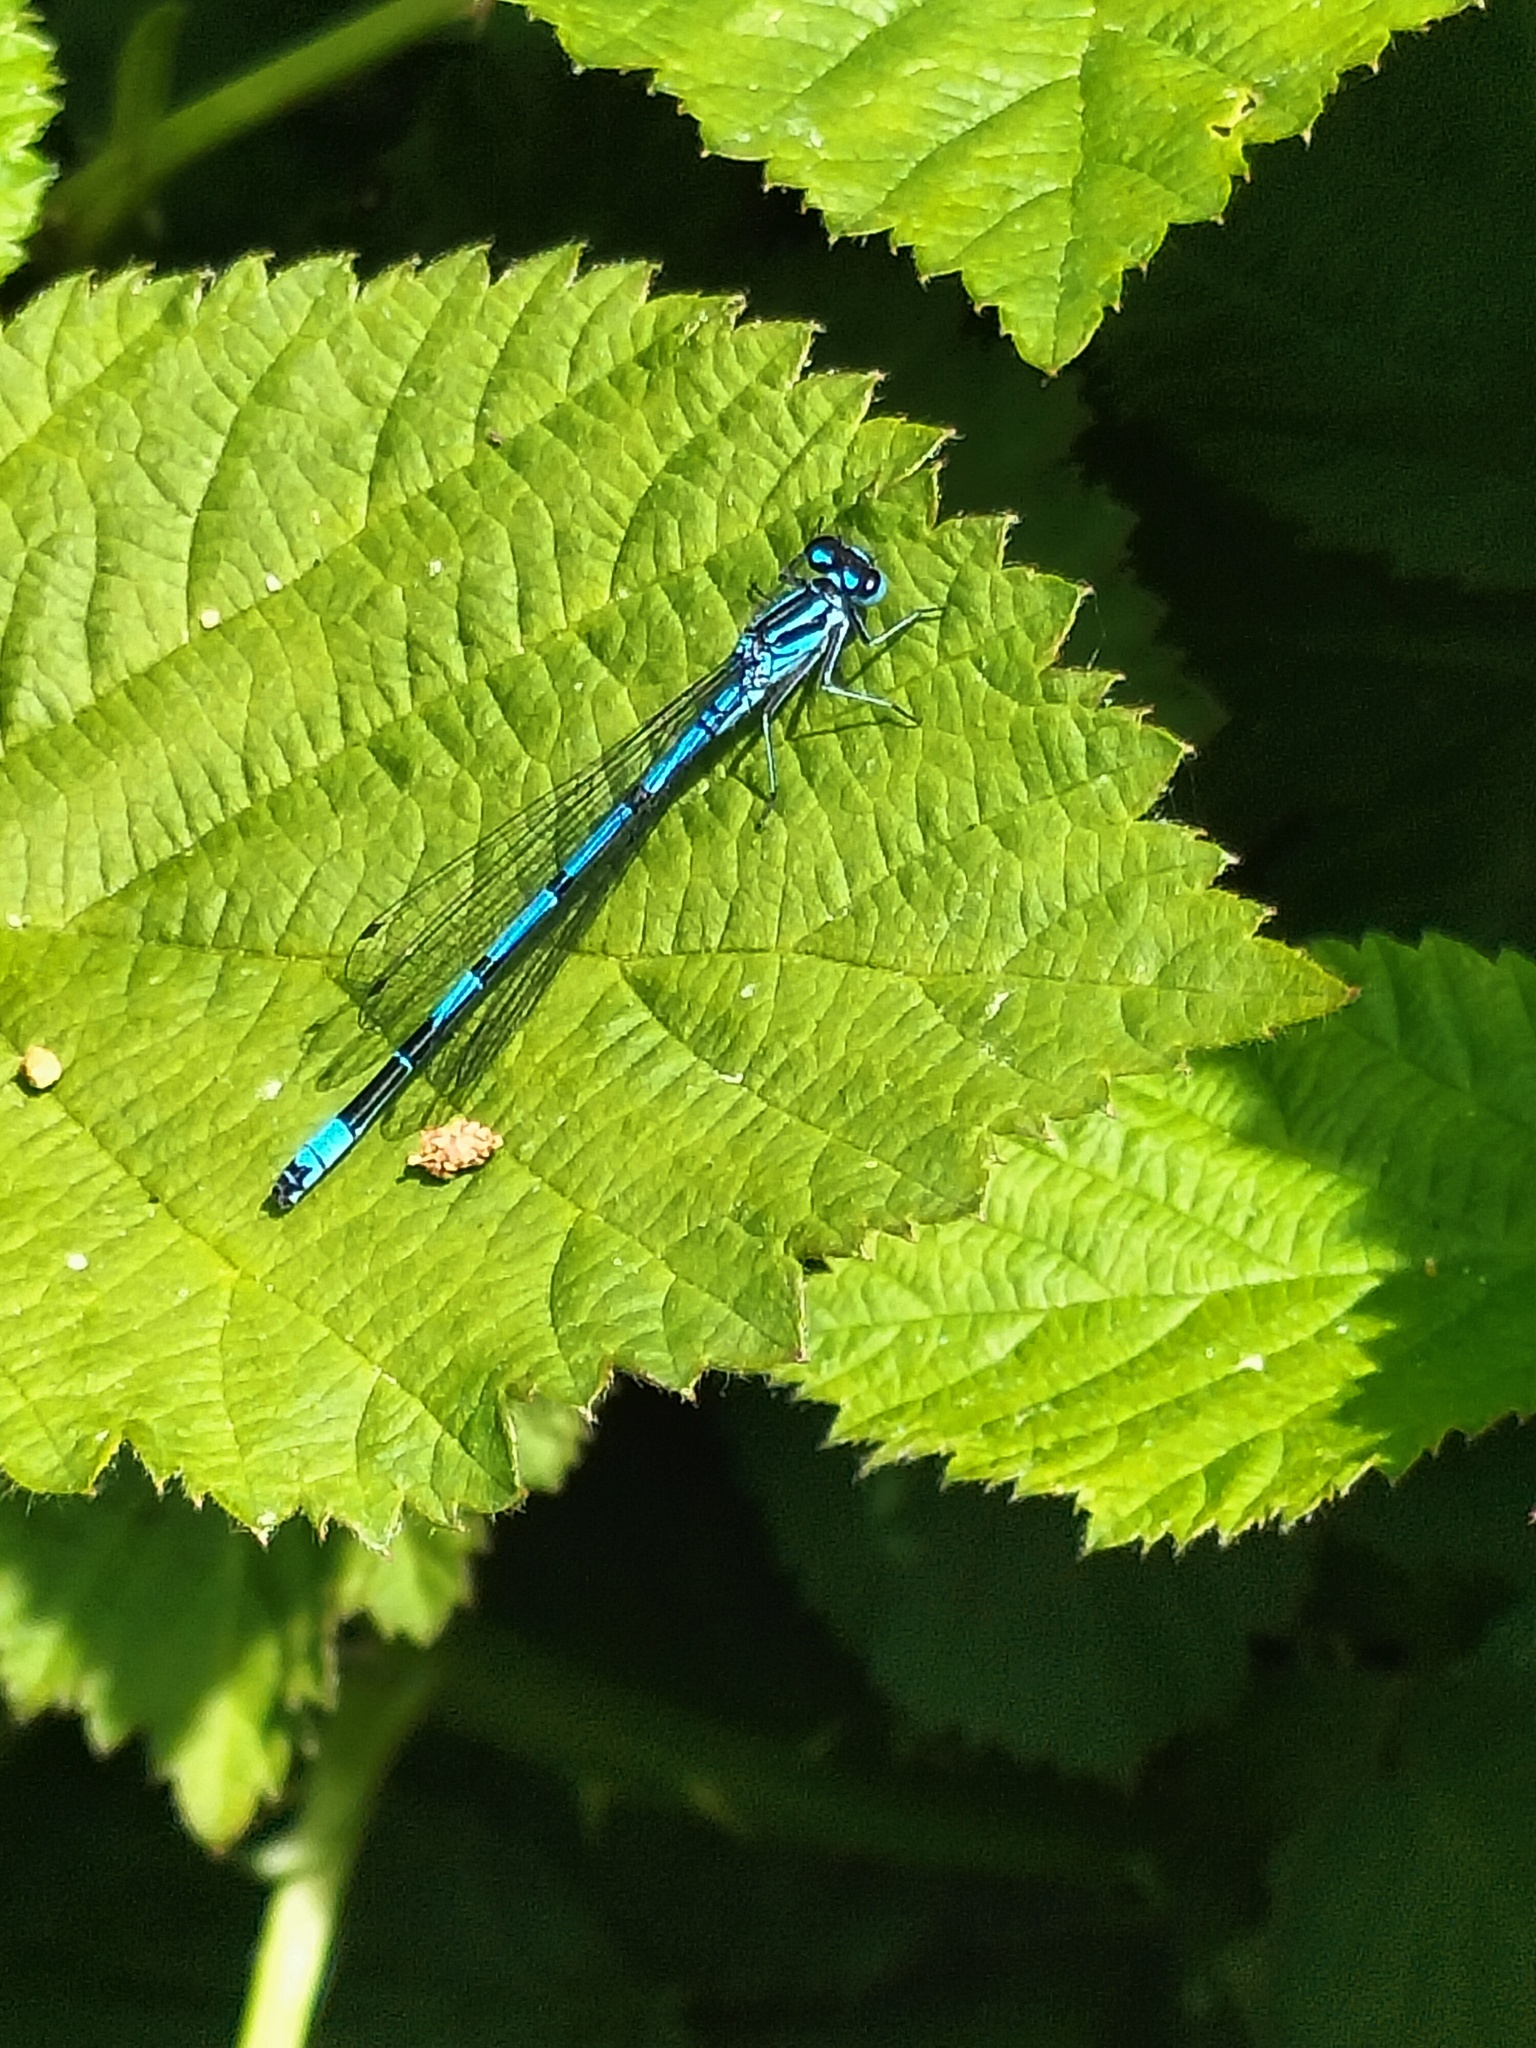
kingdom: Animalia
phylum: Arthropoda
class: Insecta
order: Odonata
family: Coenagrionidae
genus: Coenagrion
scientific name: Coenagrion puella
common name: Azure damselfly
